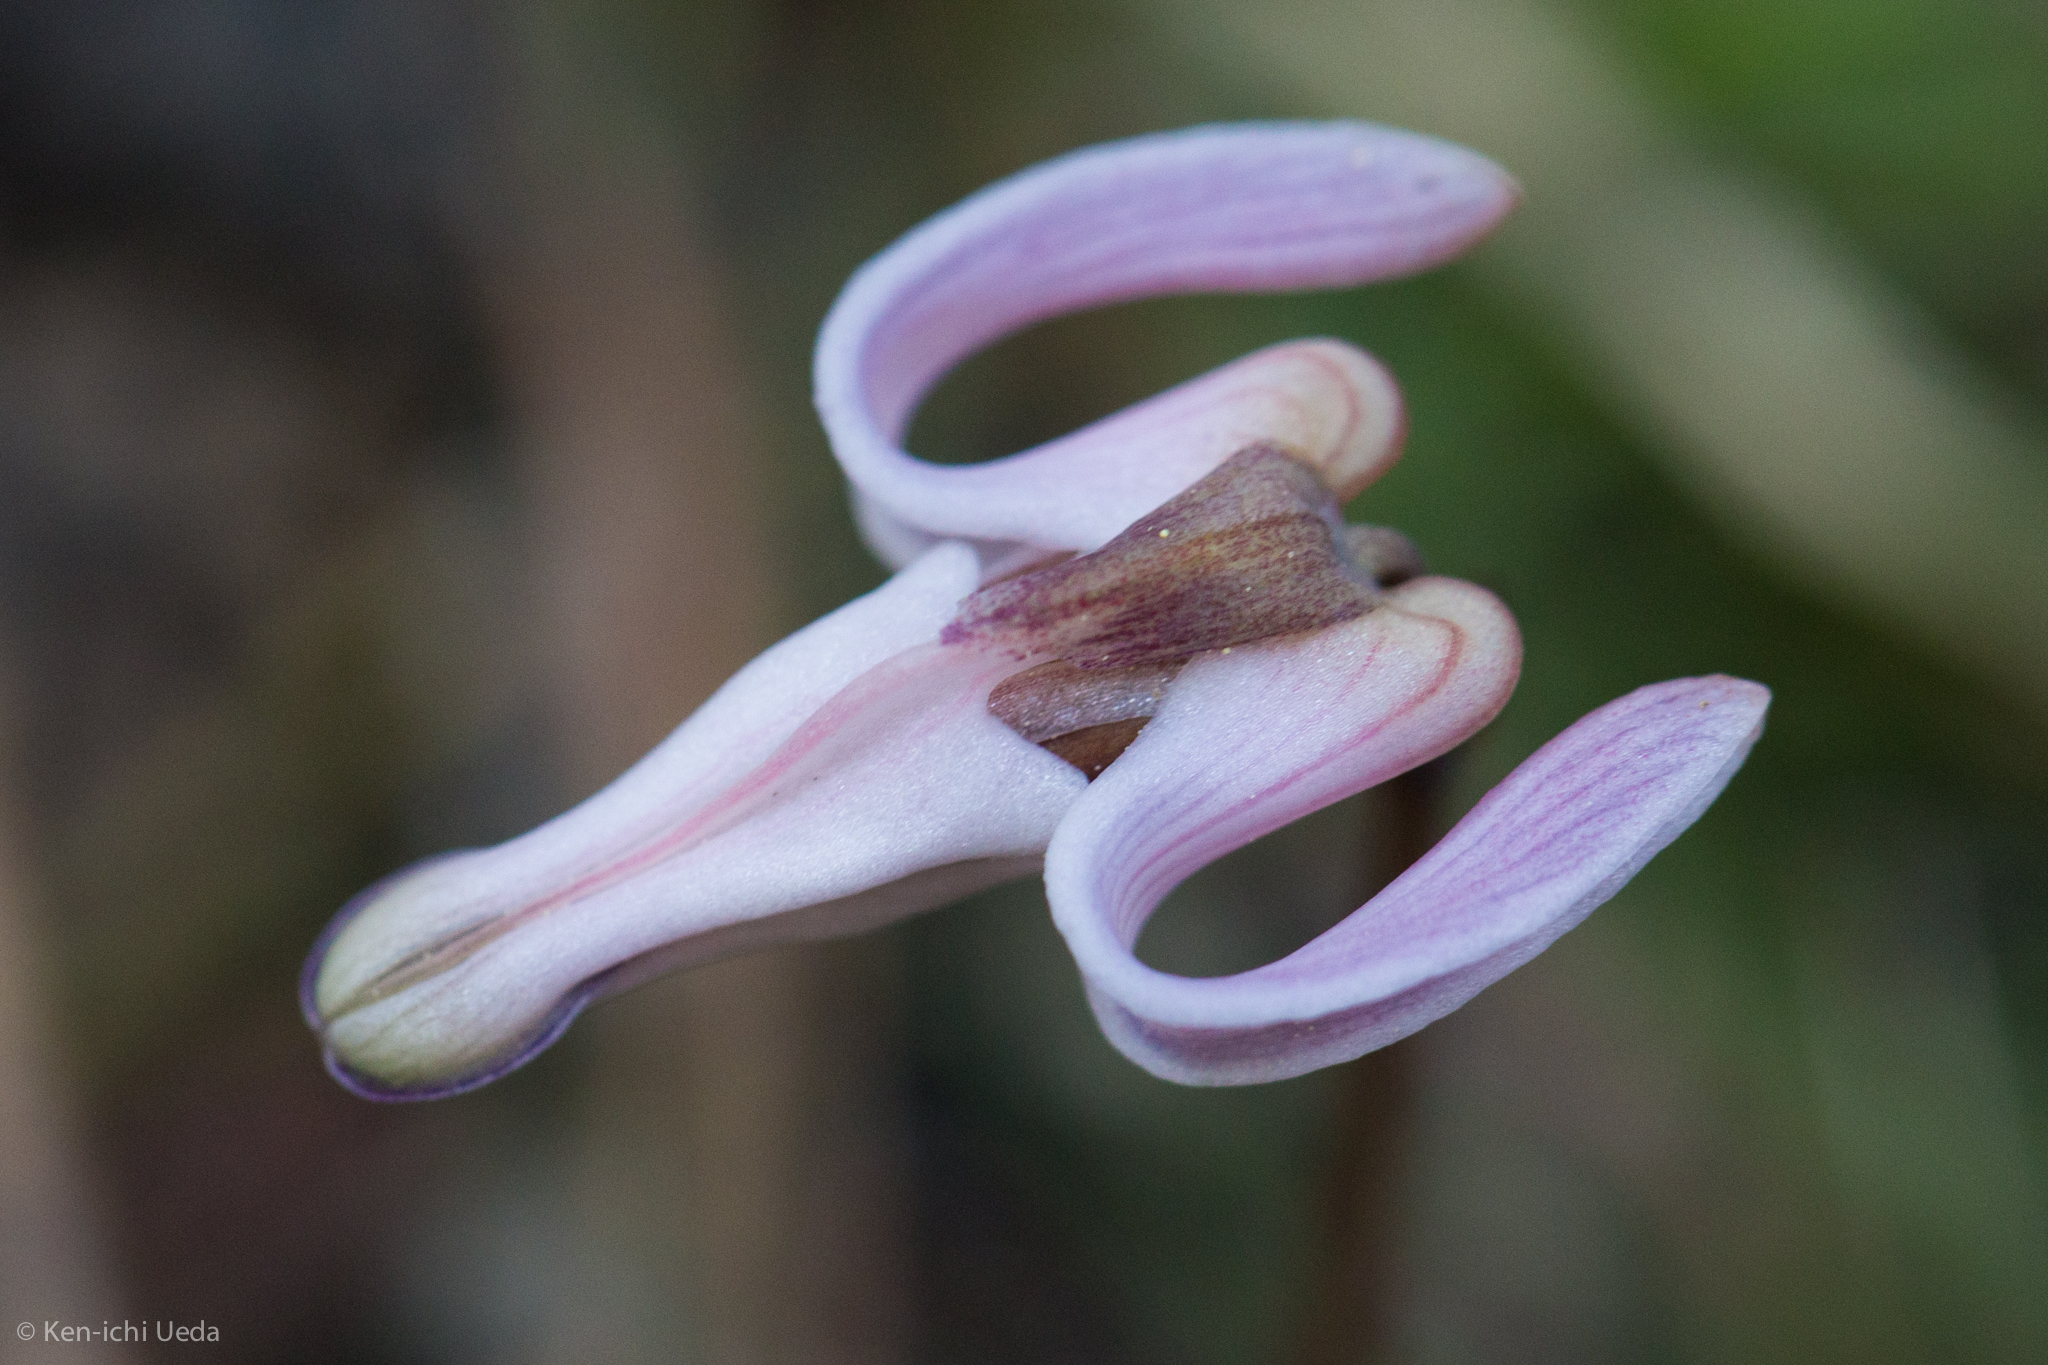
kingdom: Plantae
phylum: Tracheophyta
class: Magnoliopsida
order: Ranunculales
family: Papaveraceae
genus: Dicentra
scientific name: Dicentra uniflora
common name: Steer's-head
